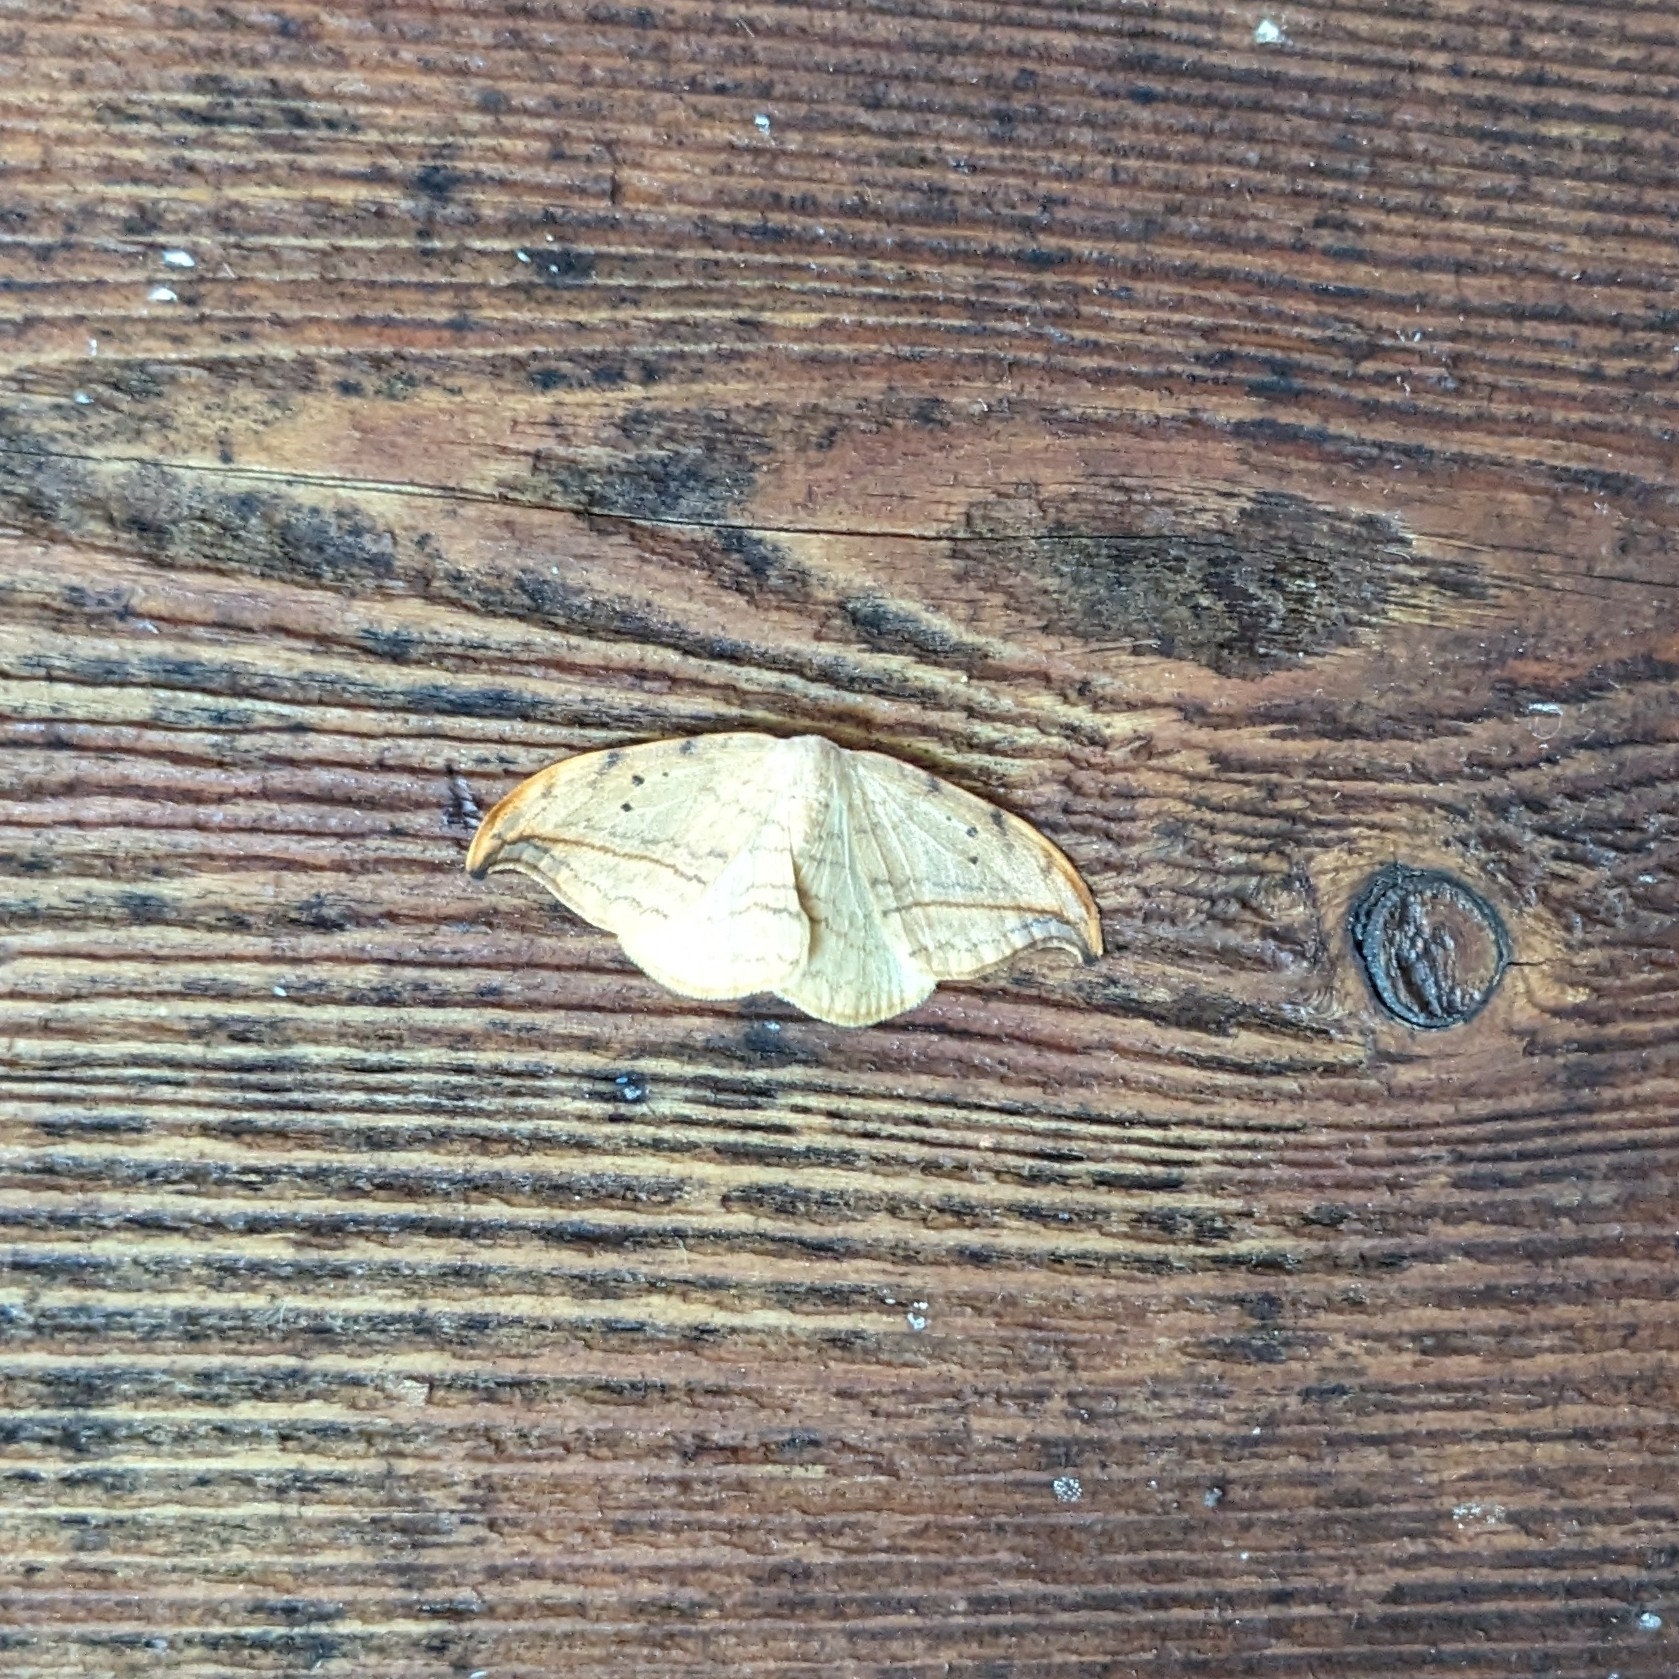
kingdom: Animalia
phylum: Arthropoda
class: Insecta
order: Lepidoptera
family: Drepanidae
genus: Drepana
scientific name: Drepana arcuata
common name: Arched hooktip moth
